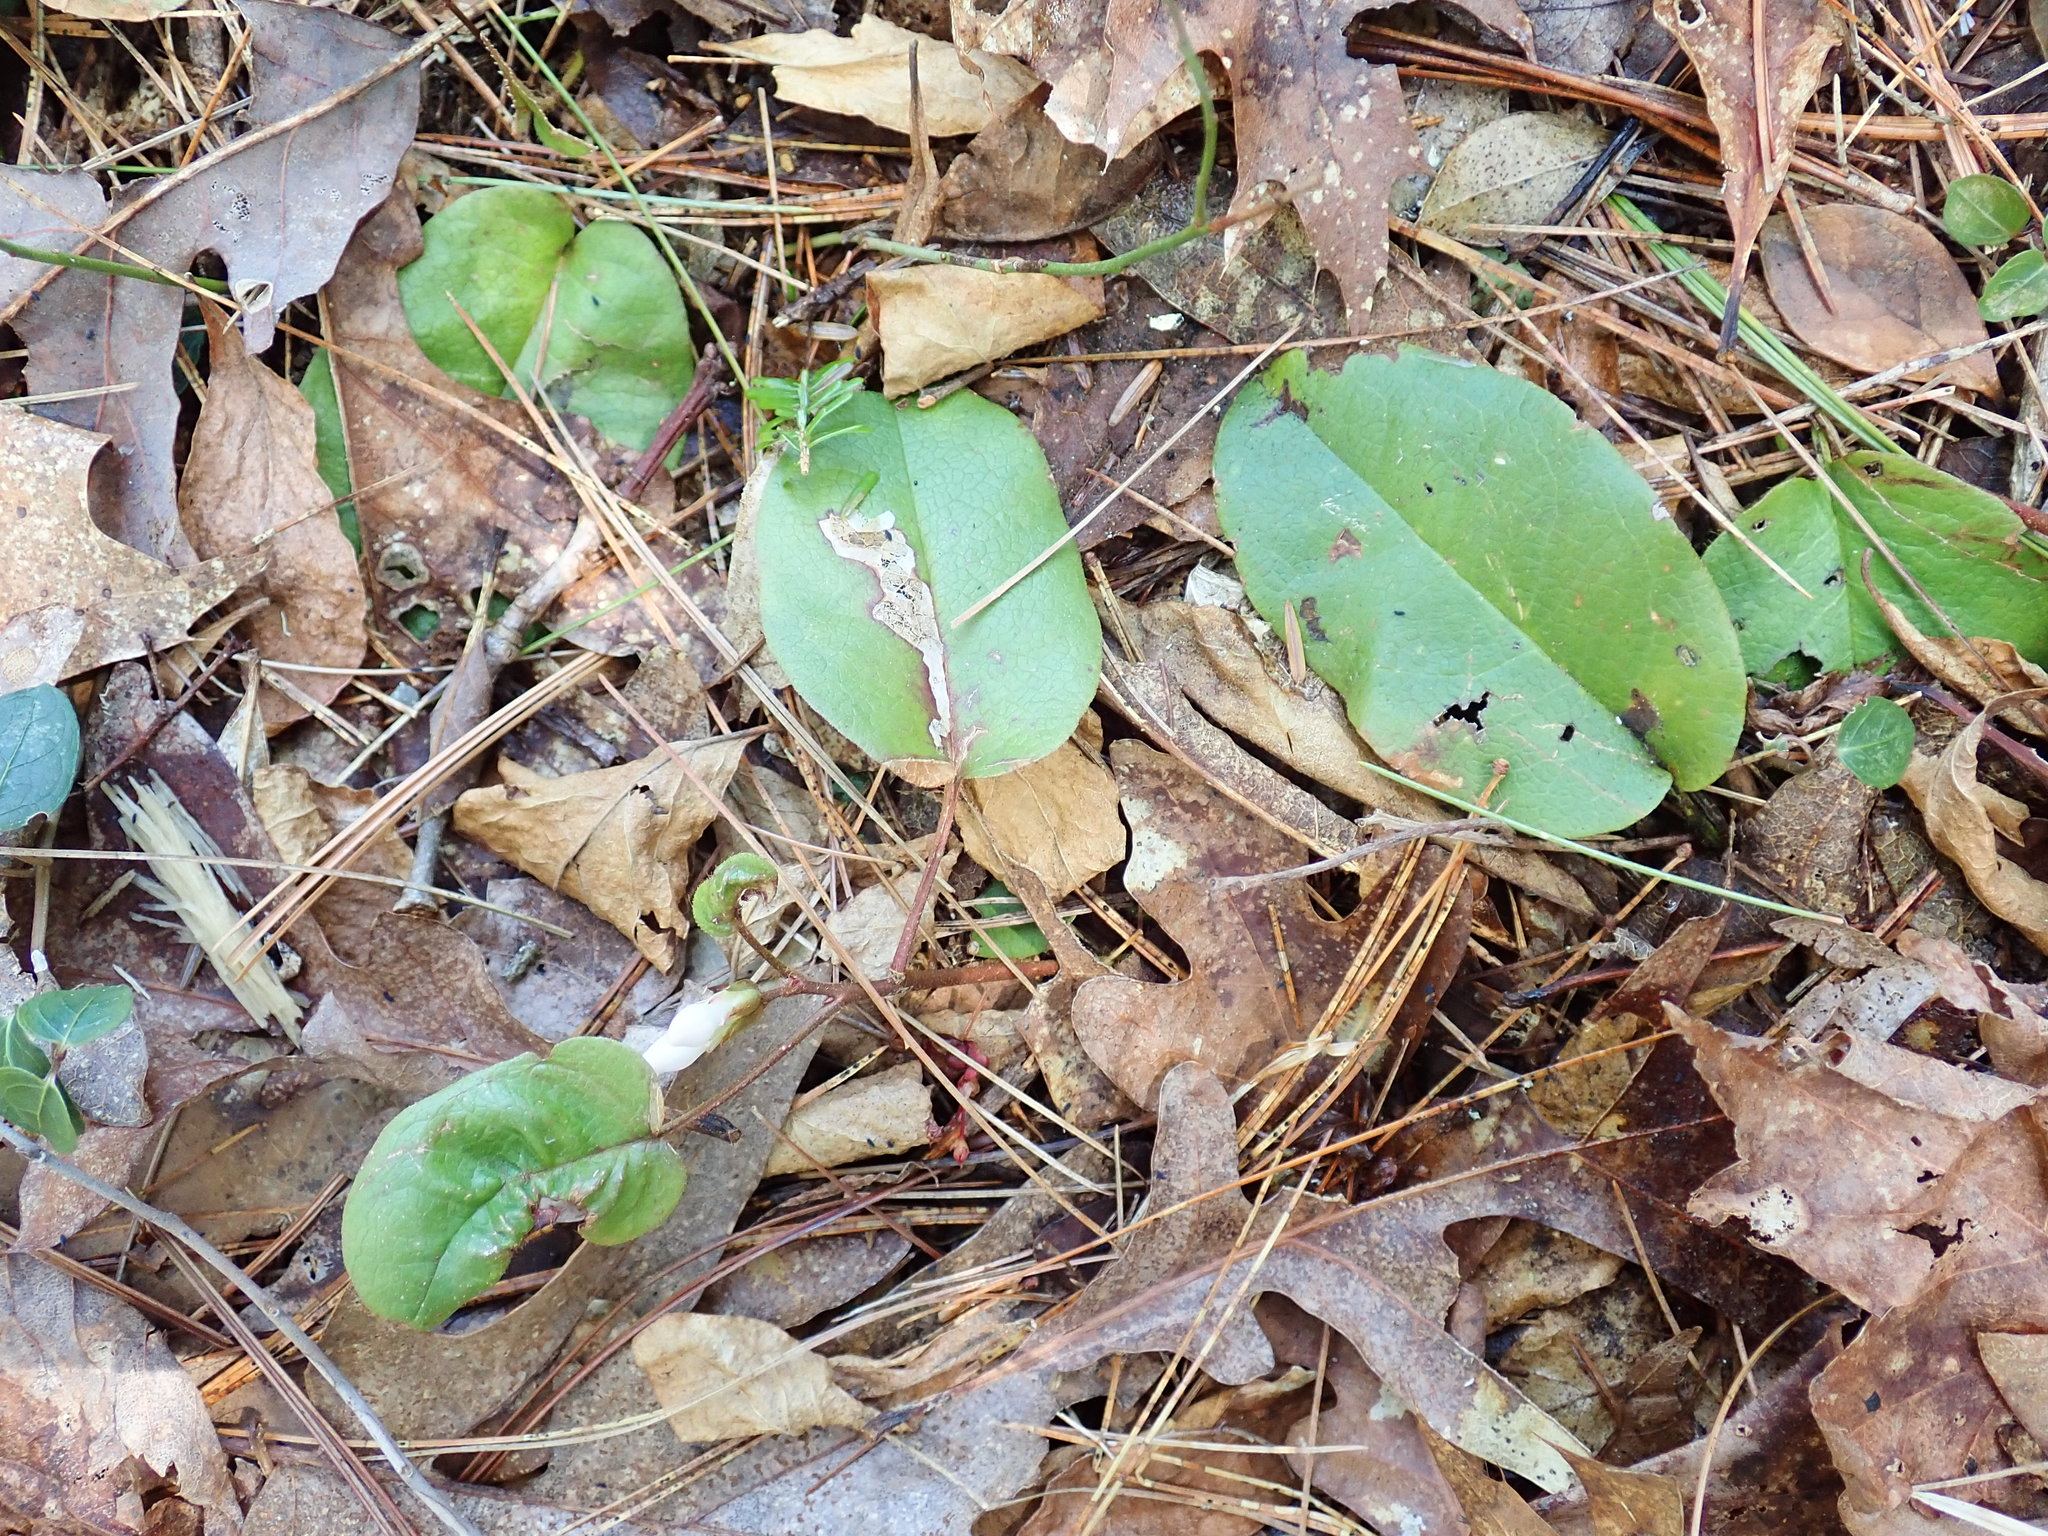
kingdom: Plantae
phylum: Tracheophyta
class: Magnoliopsida
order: Ericales
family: Ericaceae
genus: Epigaea
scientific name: Epigaea repens
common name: Gravelroot
